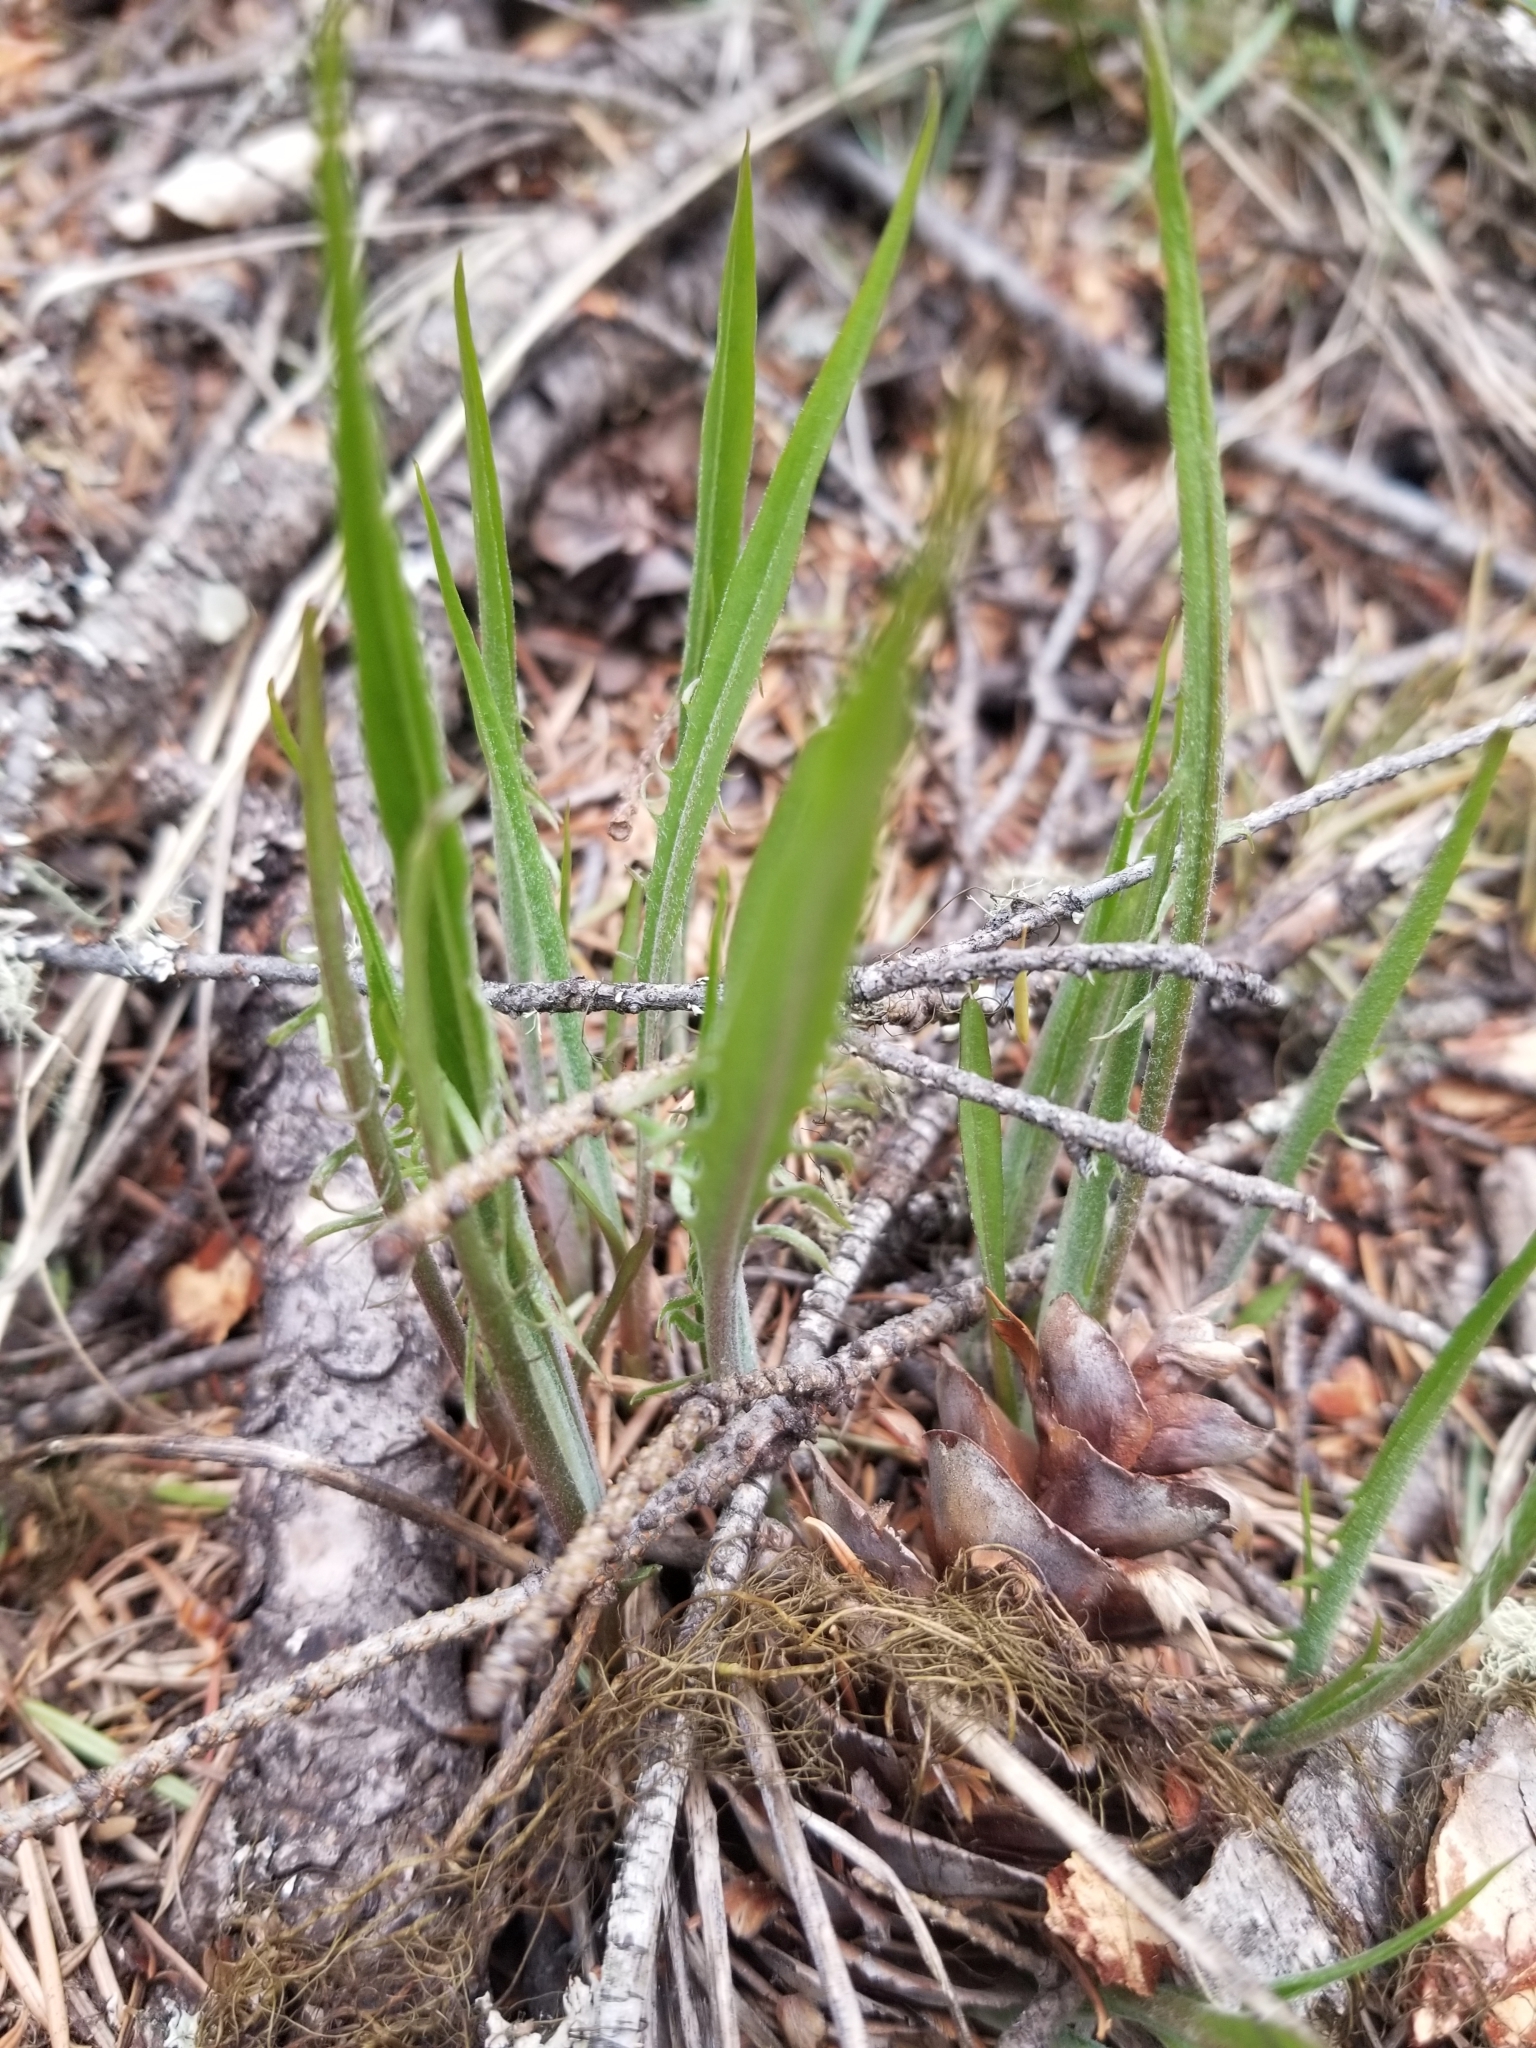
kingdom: Plantae
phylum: Tracheophyta
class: Magnoliopsida
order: Asterales
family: Asteraceae
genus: Crepis
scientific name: Crepis atribarba
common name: Dark hawk's-beard
